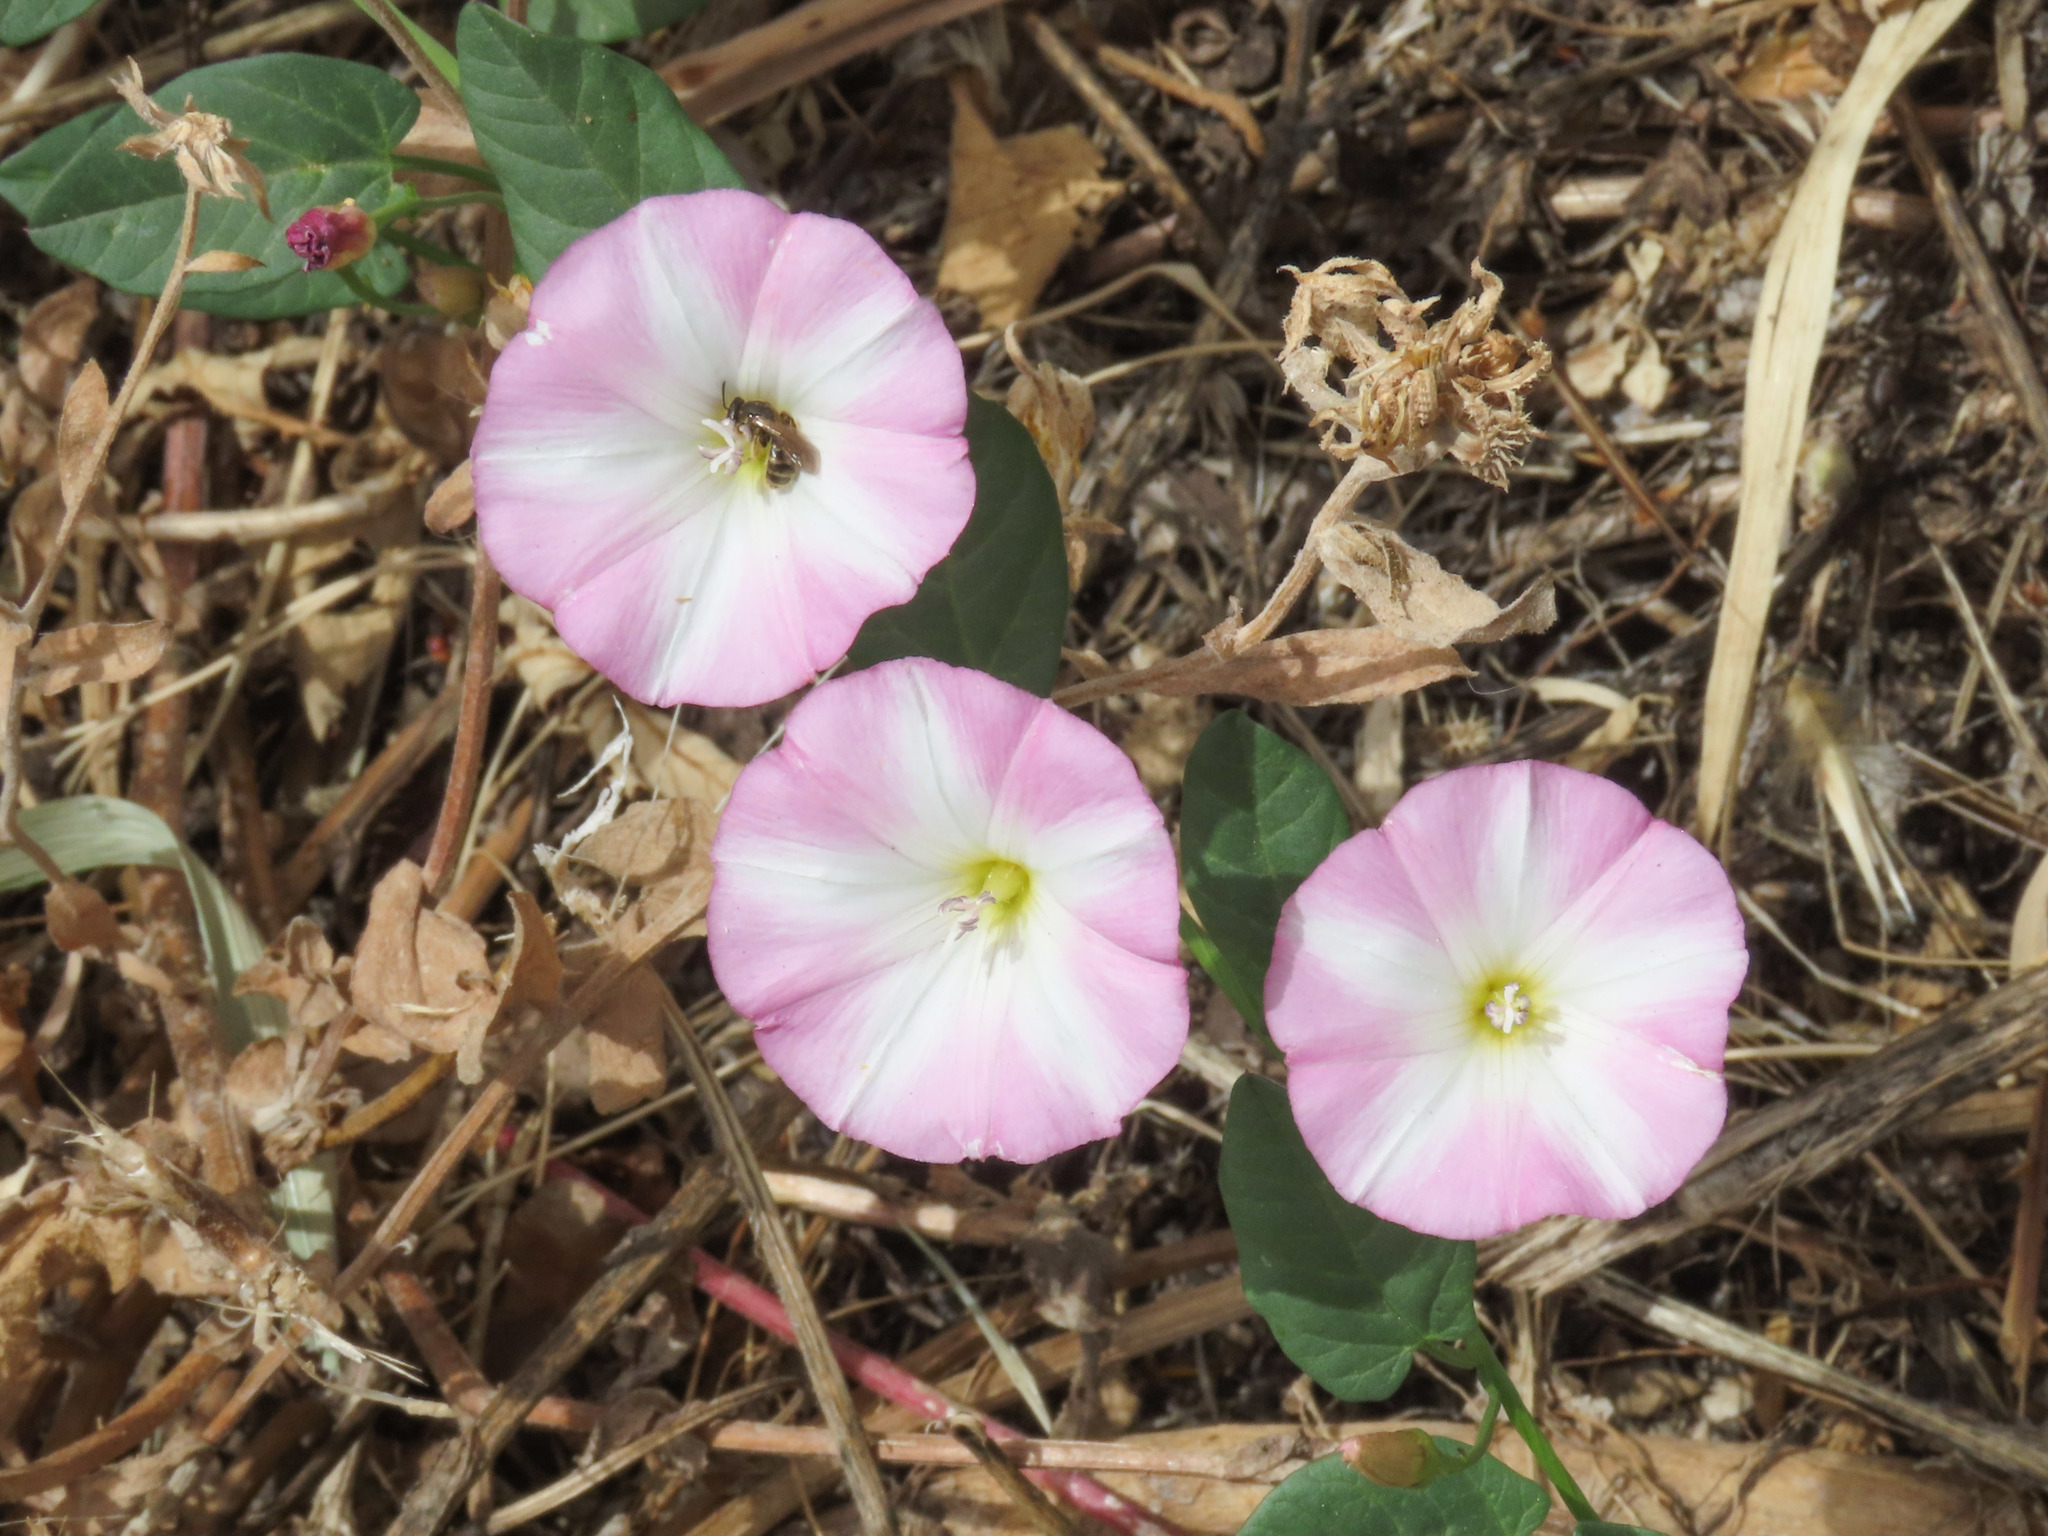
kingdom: Plantae
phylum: Tracheophyta
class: Magnoliopsida
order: Solanales
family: Convolvulaceae
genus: Convolvulus
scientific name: Convolvulus arvensis
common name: Field bindweed
